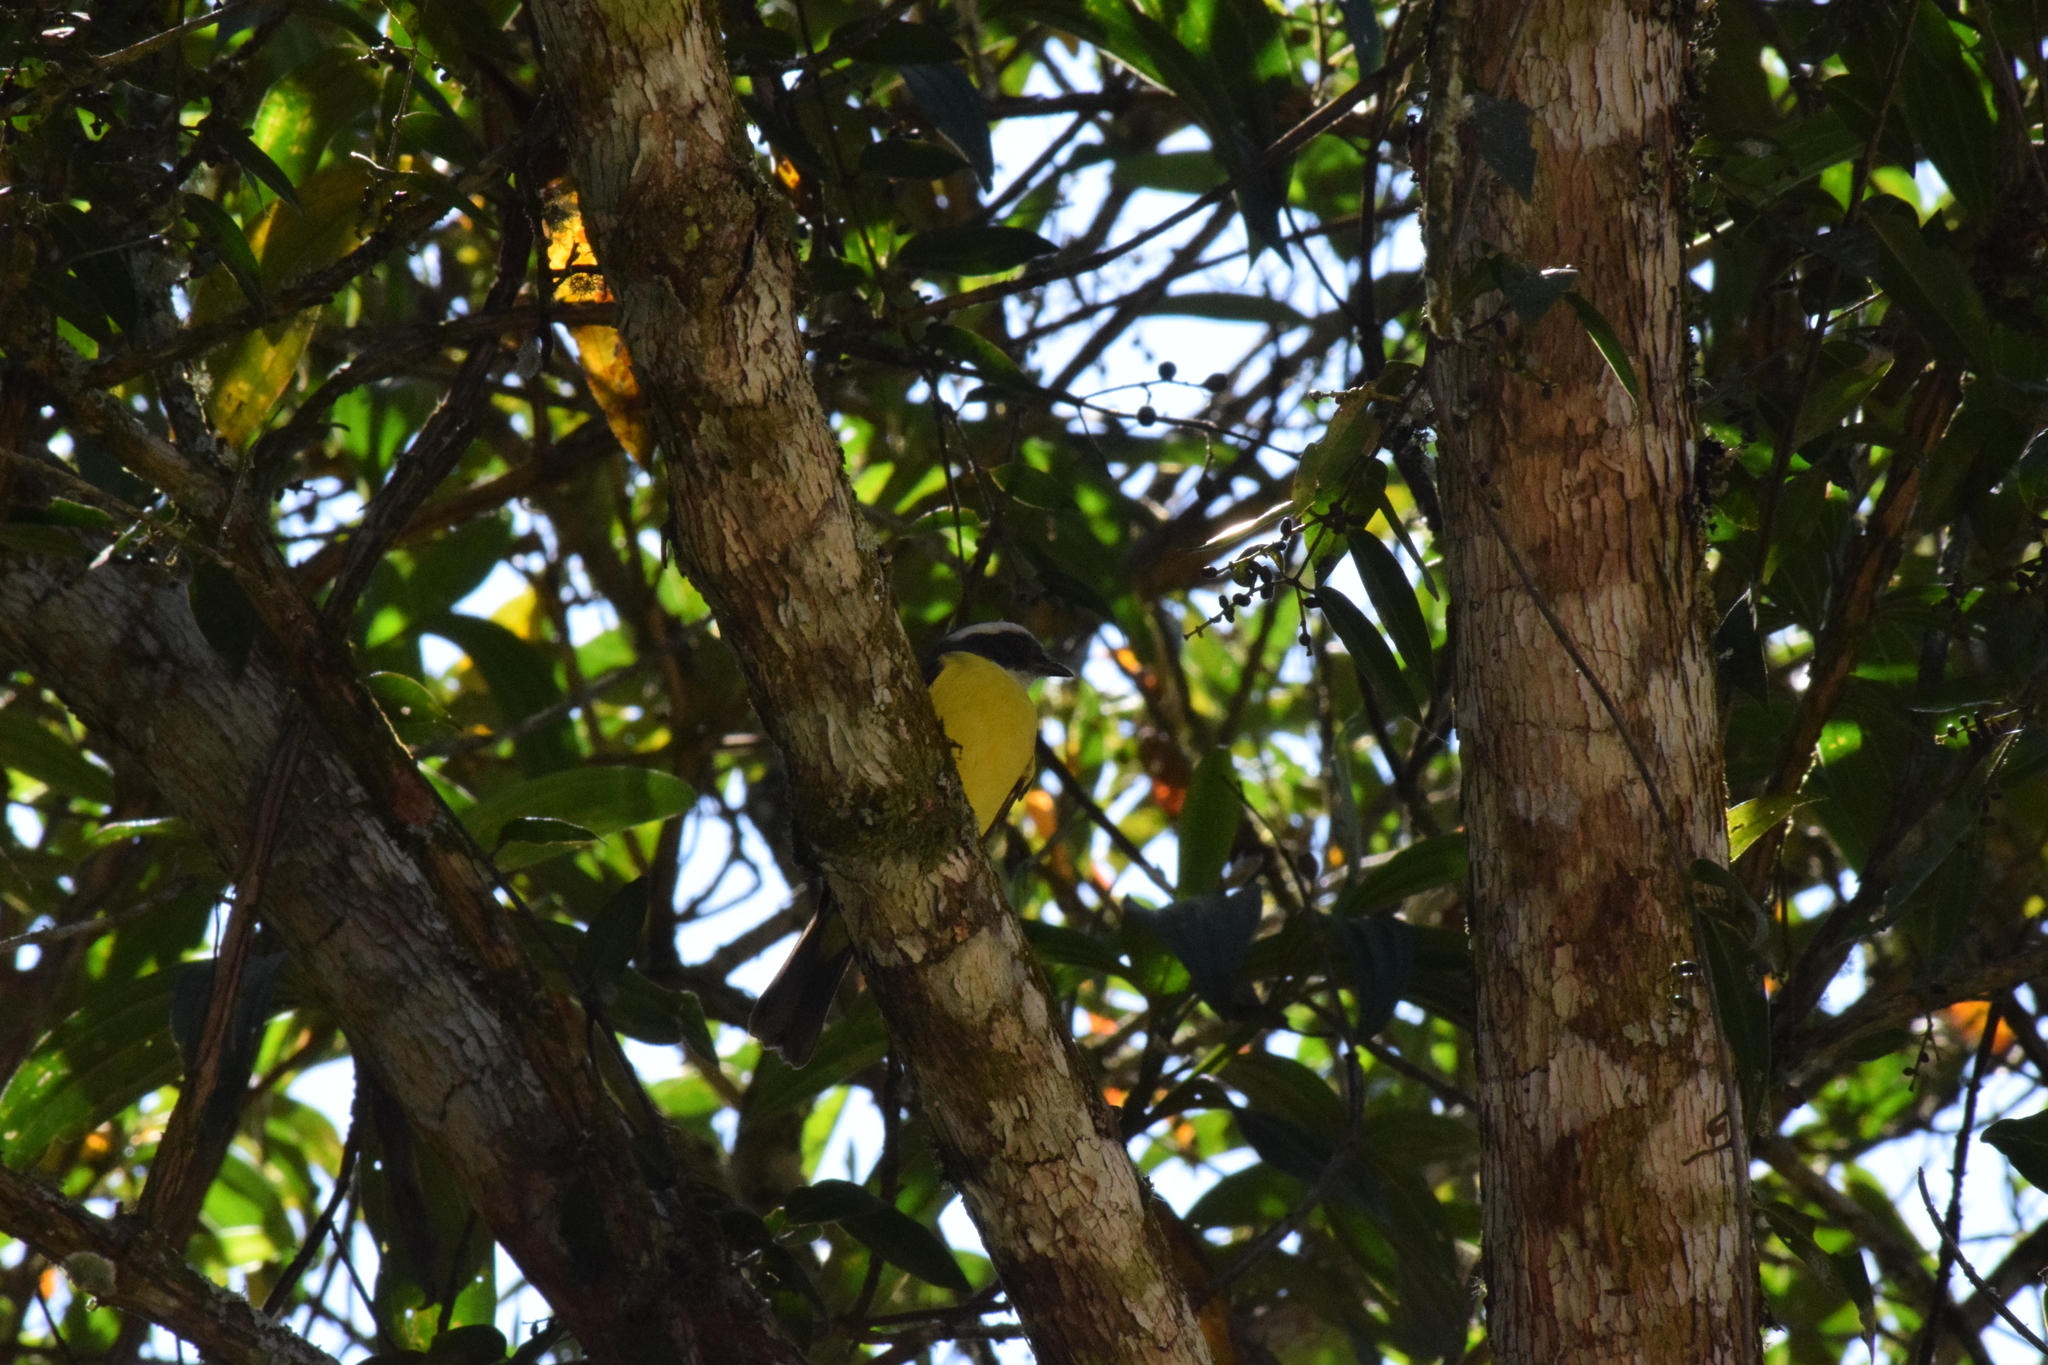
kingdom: Animalia
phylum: Chordata
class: Aves
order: Passeriformes
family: Tyrannidae
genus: Myiozetetes
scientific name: Myiozetetes similis
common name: Social flycatcher
